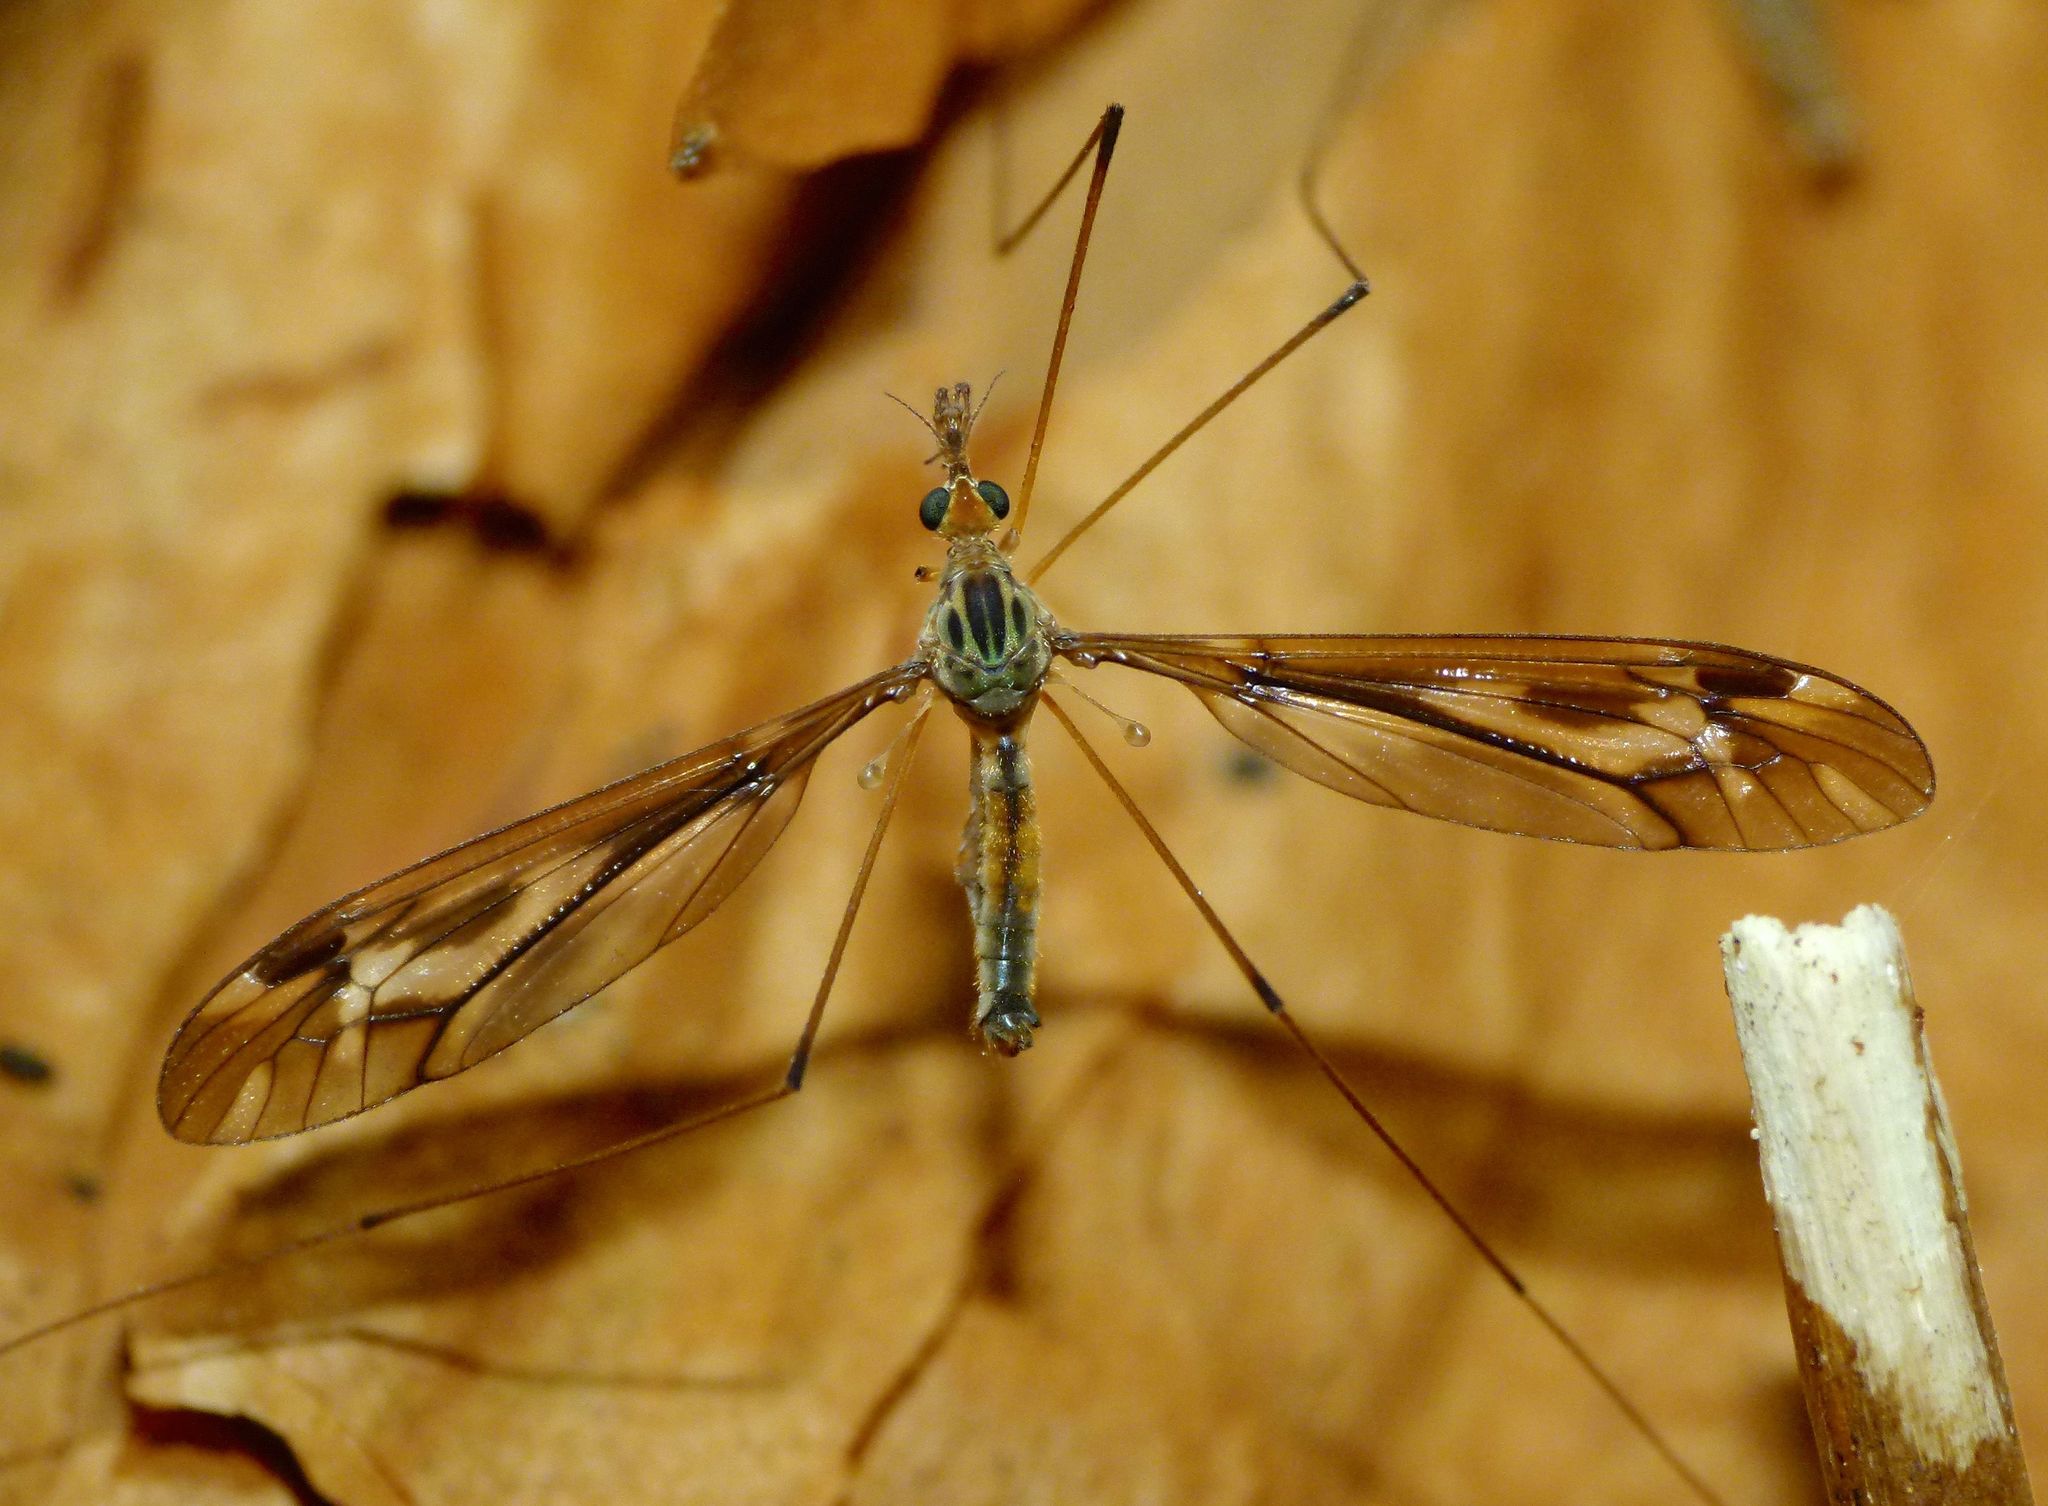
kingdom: Animalia
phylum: Arthropoda
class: Insecta
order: Diptera
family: Tipulidae
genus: Leptotarsus
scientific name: Leptotarsus huttoni
